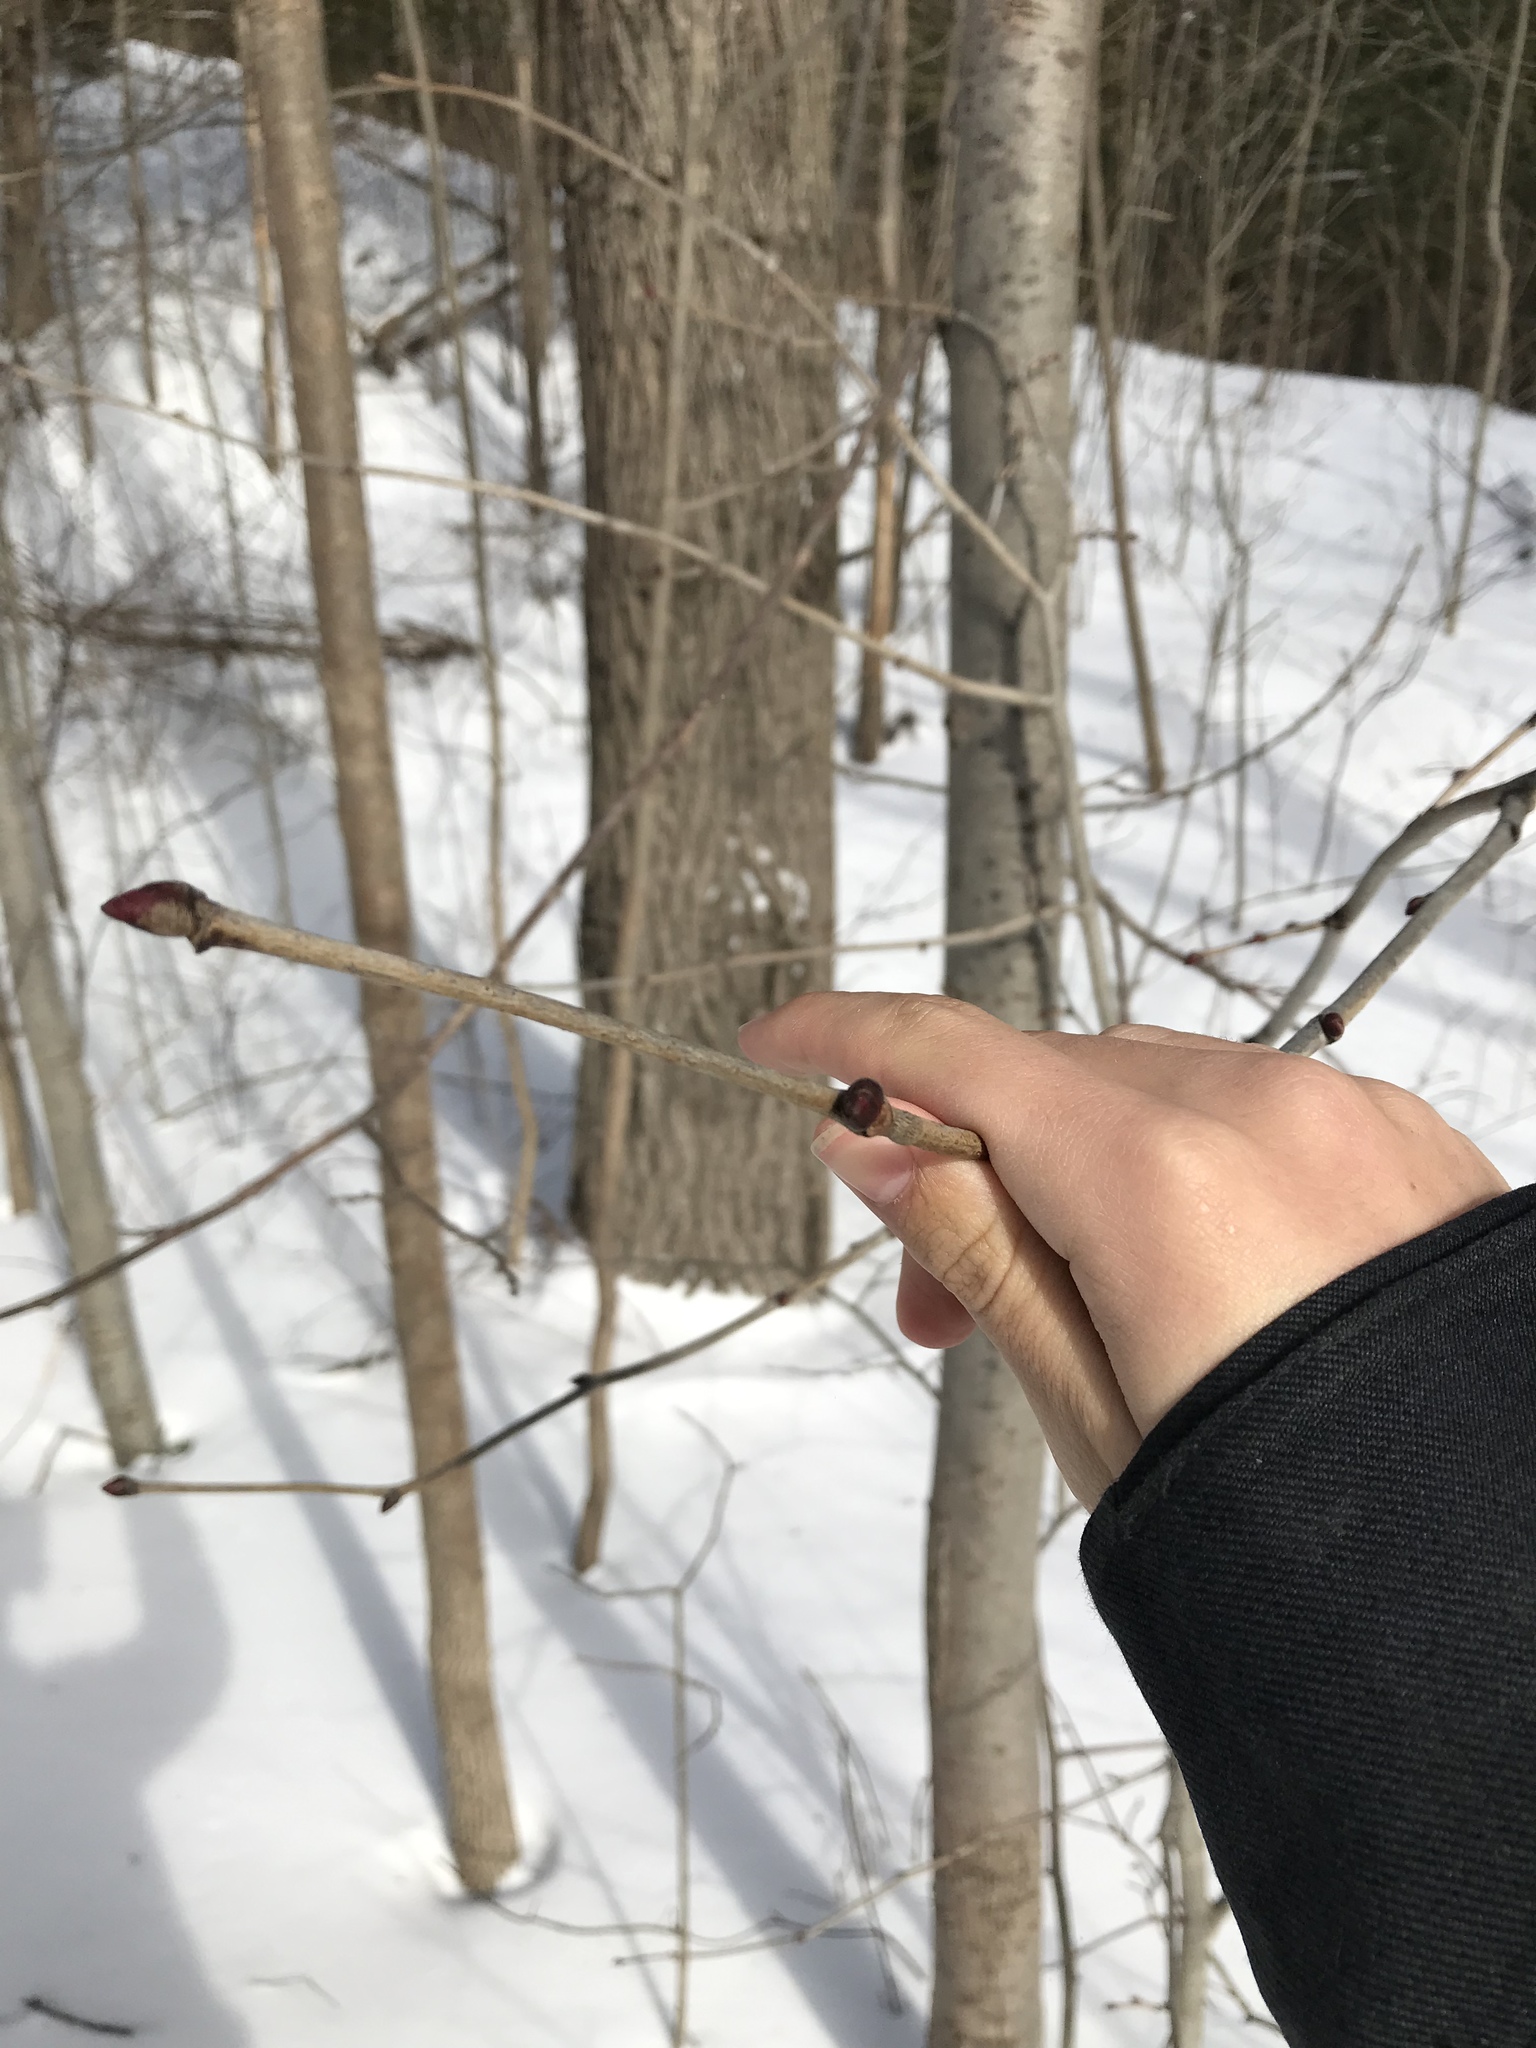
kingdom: Plantae
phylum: Tracheophyta
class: Magnoliopsida
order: Malvales
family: Malvaceae
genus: Tilia
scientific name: Tilia americana
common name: Basswood
